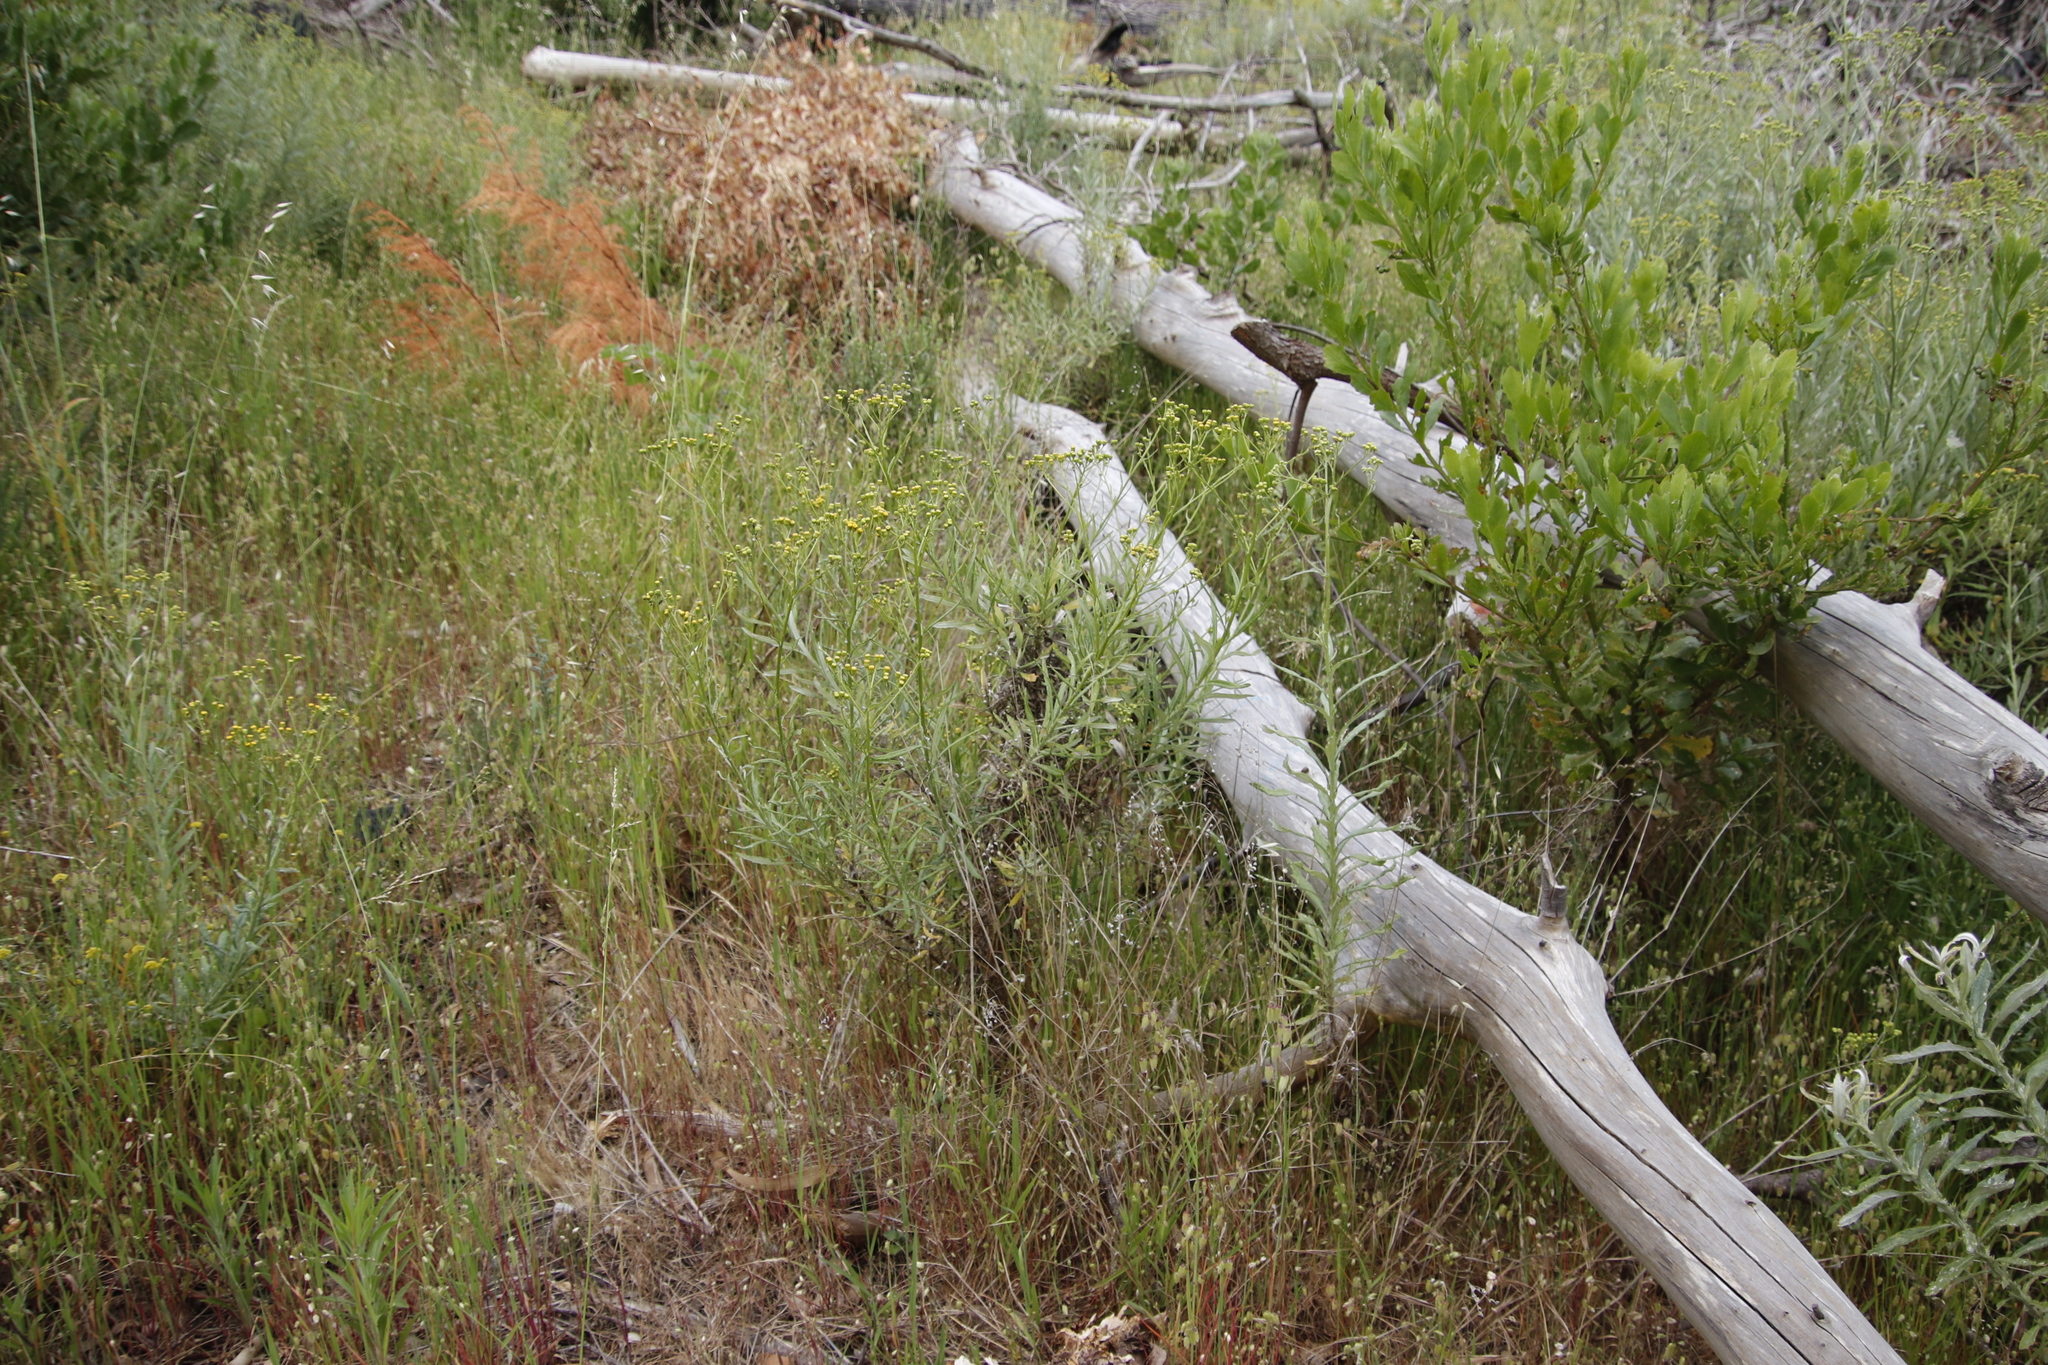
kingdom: Plantae
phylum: Tracheophyta
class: Magnoliopsida
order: Asterales
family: Asteraceae
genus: Senecio
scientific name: Senecio pterophorus
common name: Shoddy ragwort
